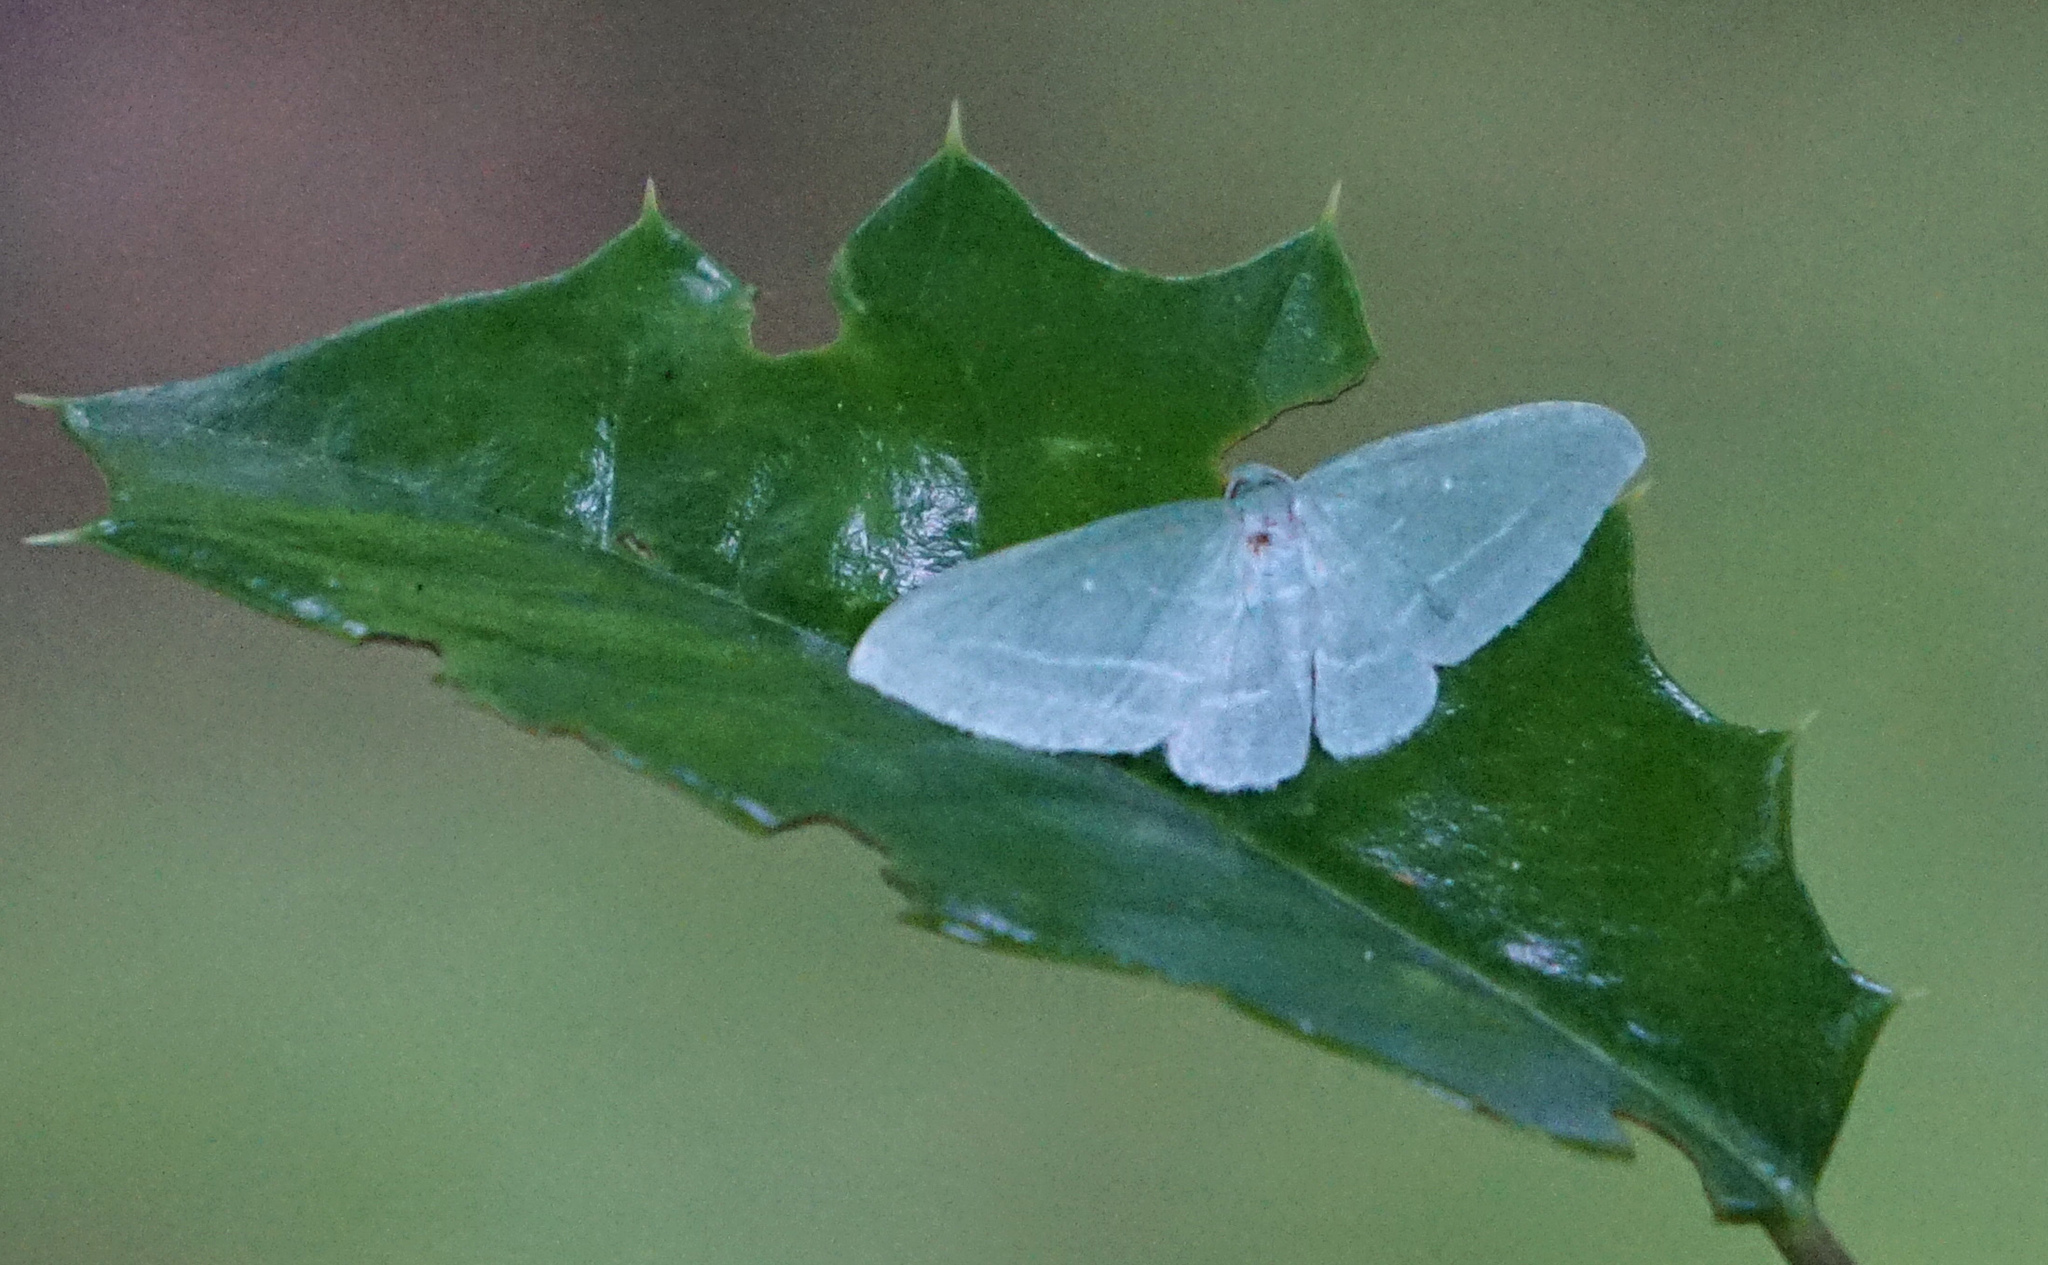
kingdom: Animalia
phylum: Arthropoda
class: Insecta
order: Lepidoptera
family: Geometridae
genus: Dyspteris
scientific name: Dyspteris abortivaria
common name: Bad-wing
